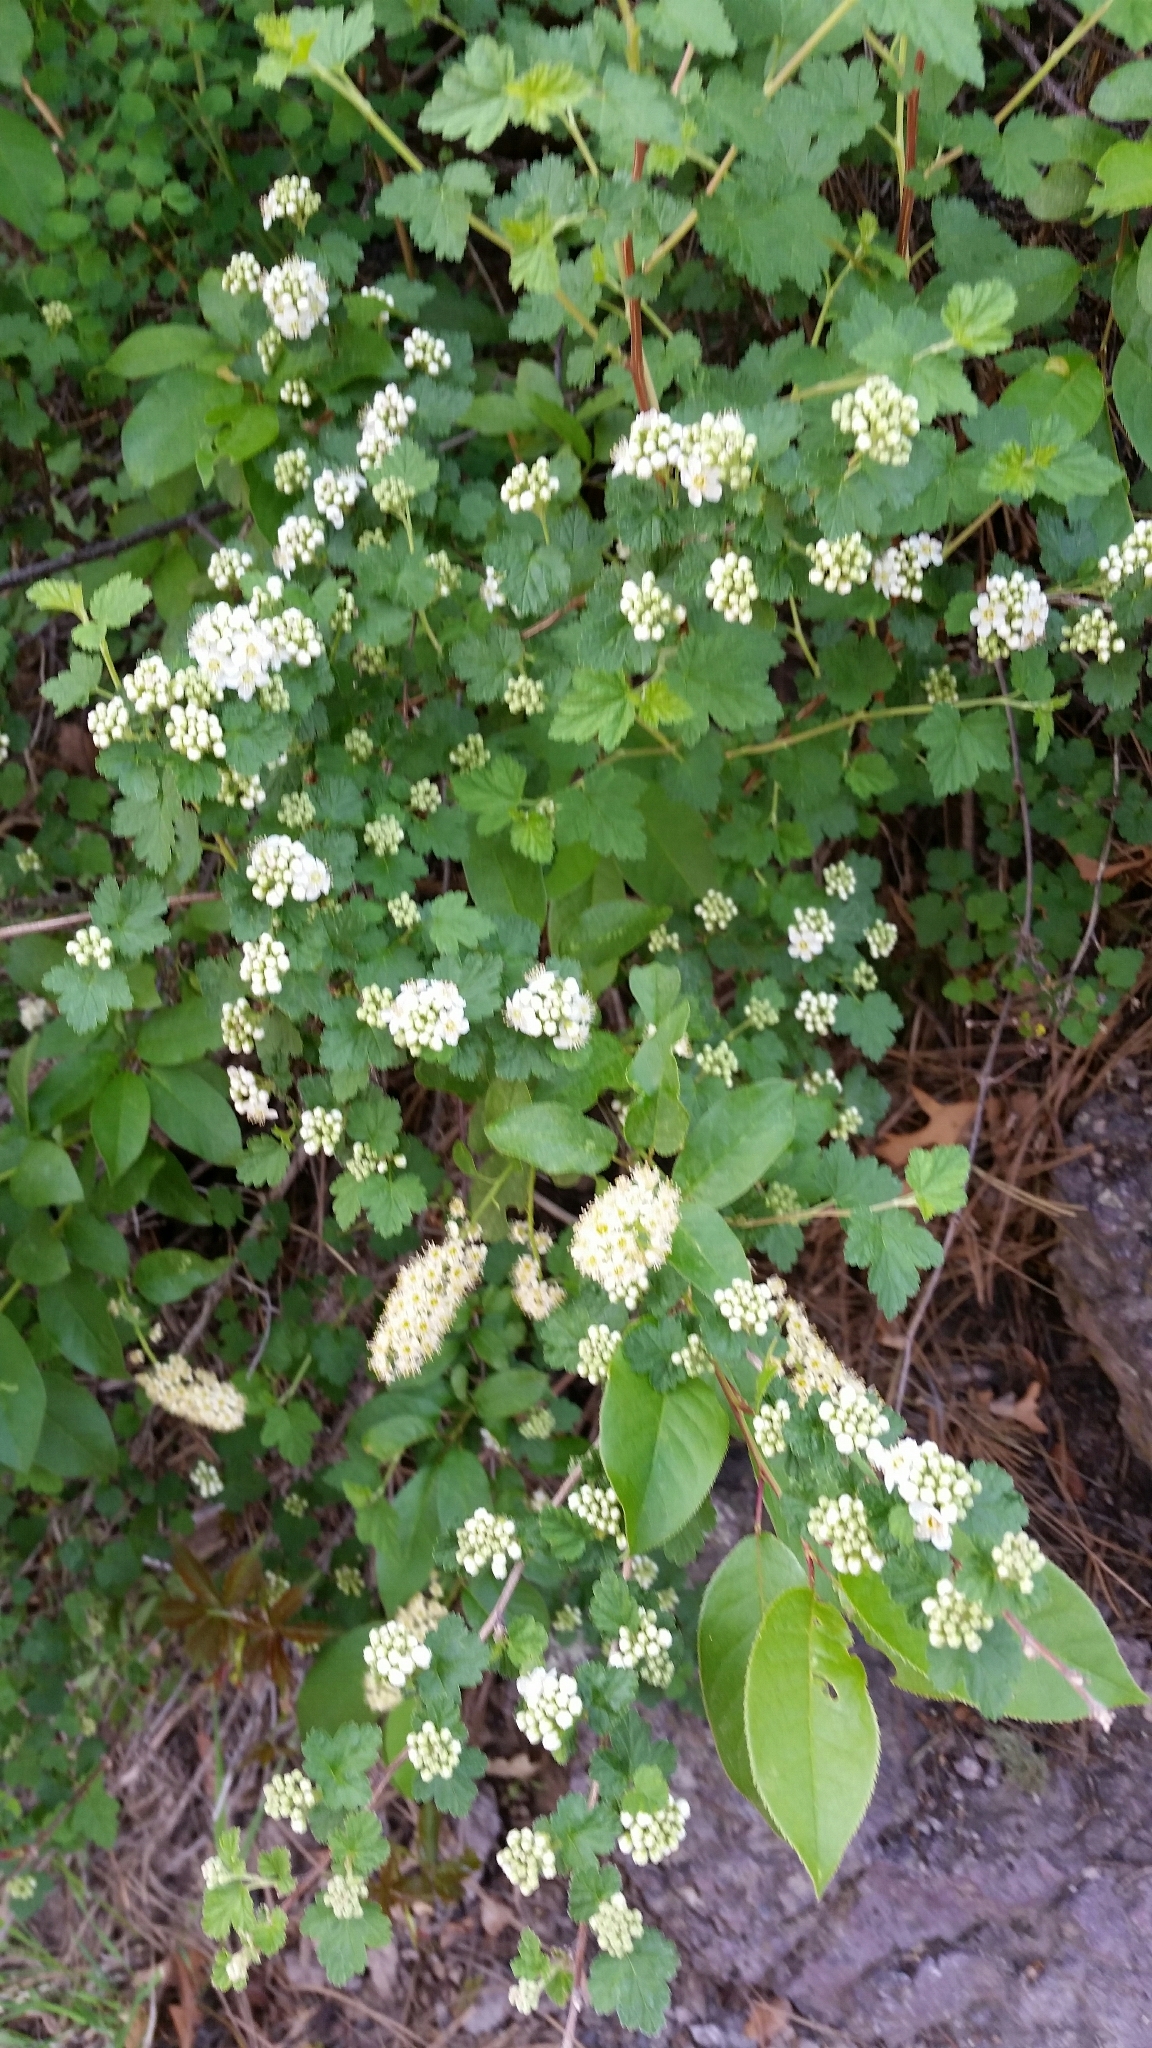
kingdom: Plantae
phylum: Tracheophyta
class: Magnoliopsida
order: Rosales
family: Rosaceae
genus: Physocarpus
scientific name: Physocarpus monogynus
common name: Mountain ninebark
